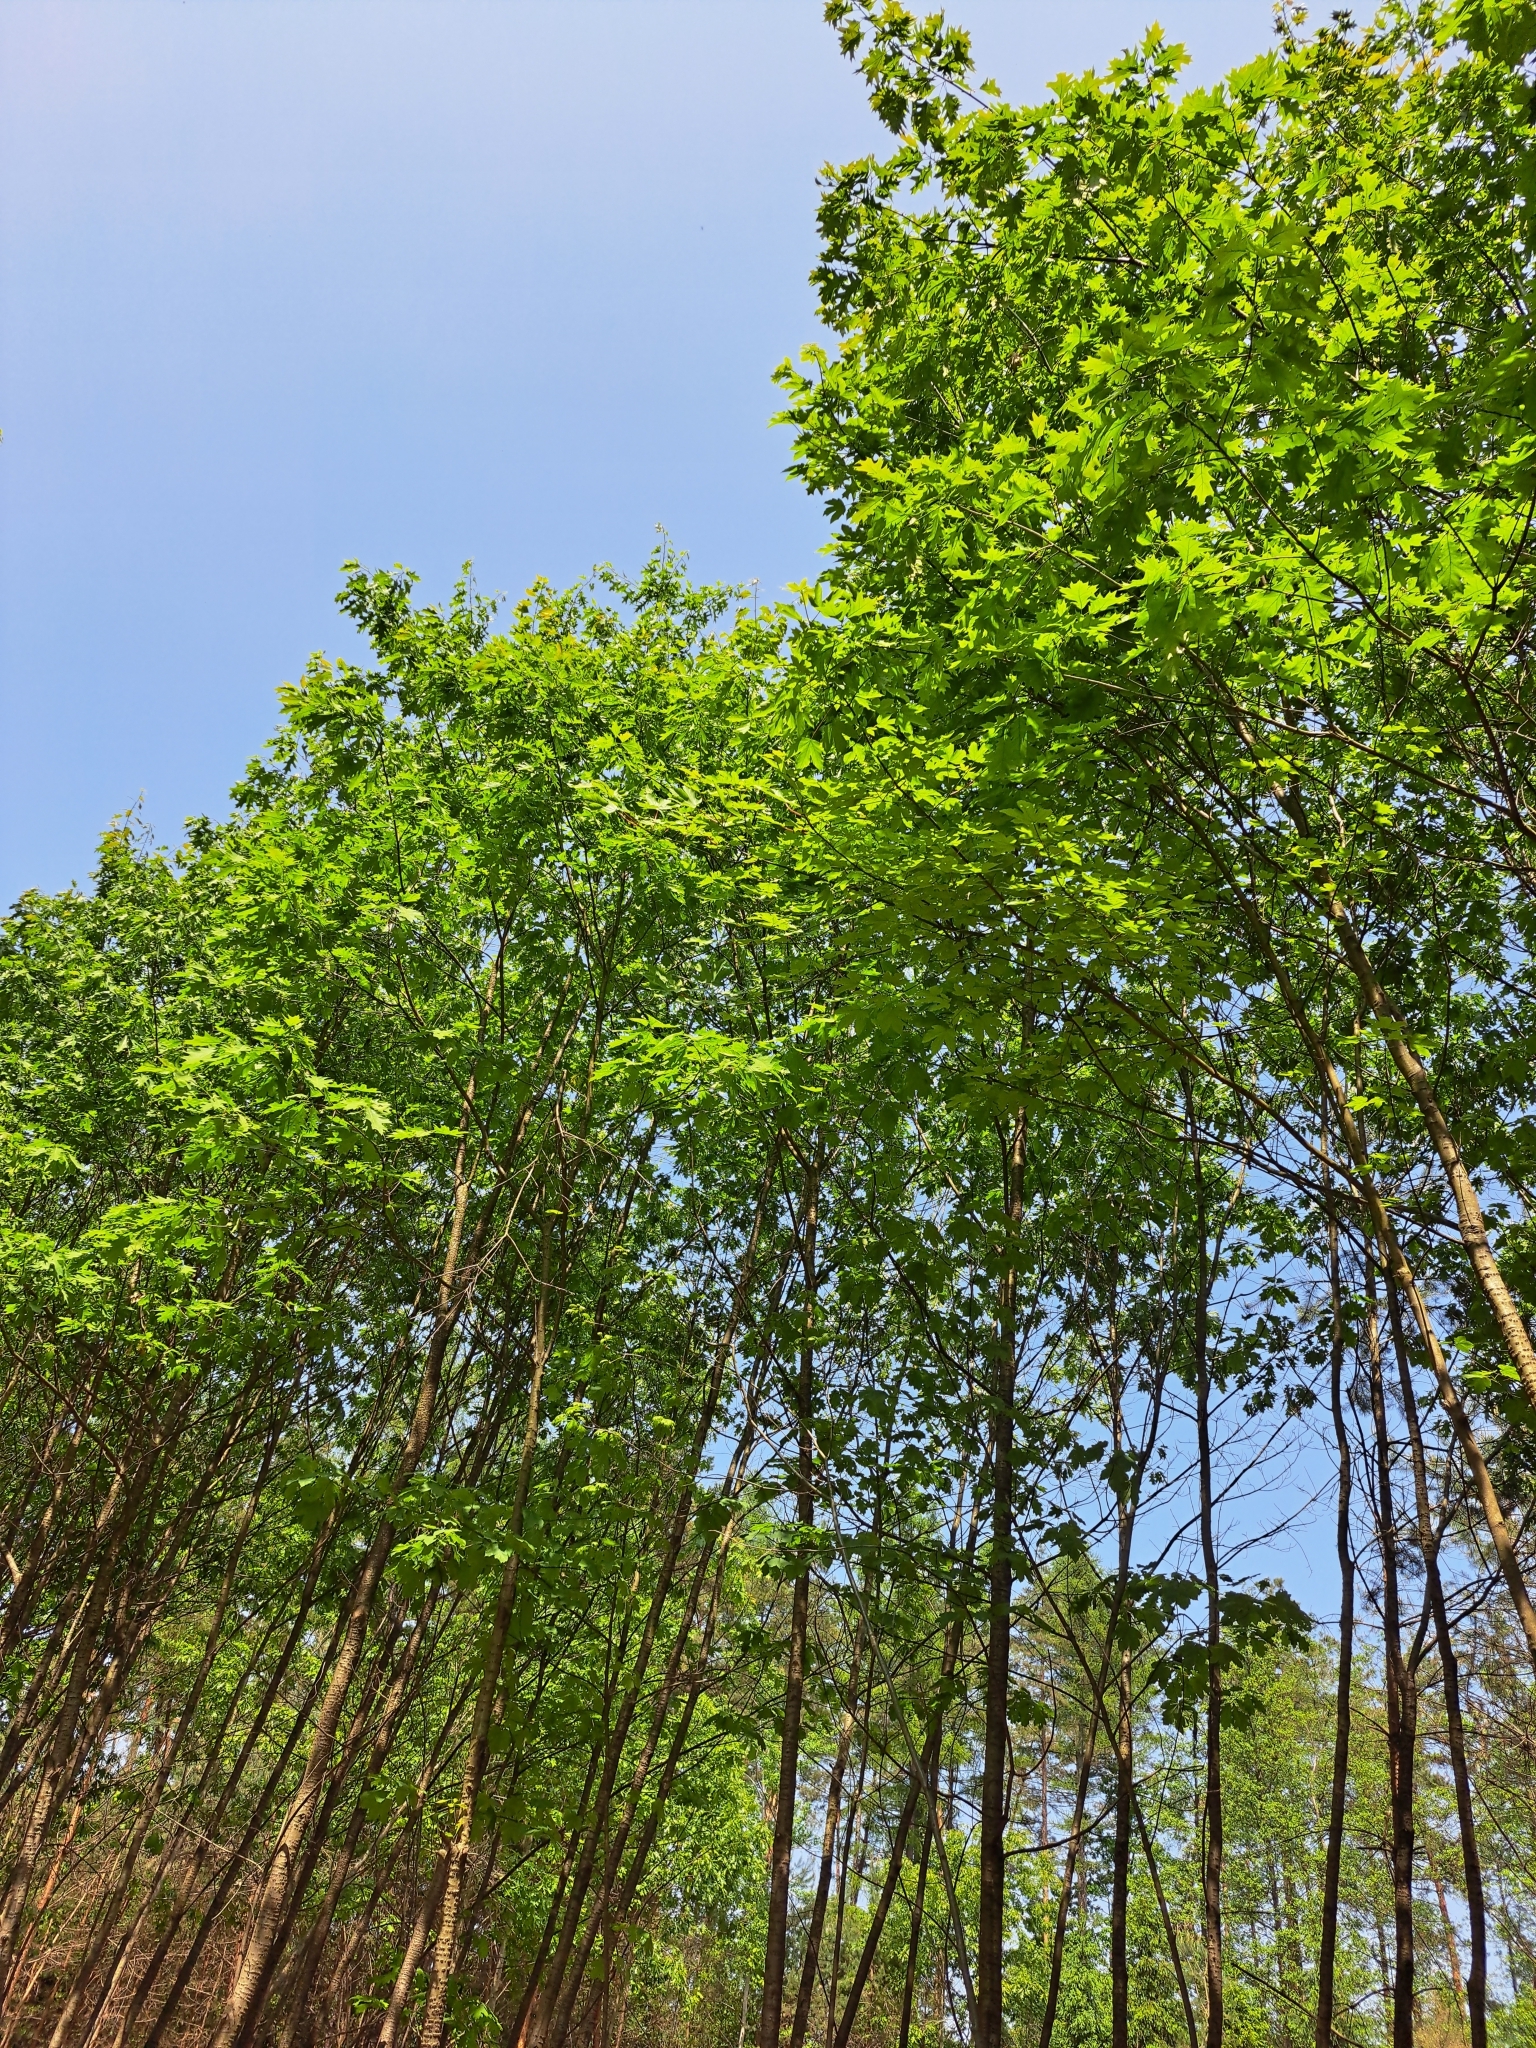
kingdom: Plantae
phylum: Tracheophyta
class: Magnoliopsida
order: Fagales
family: Fagaceae
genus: Quercus
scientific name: Quercus rubra
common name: Red oak
